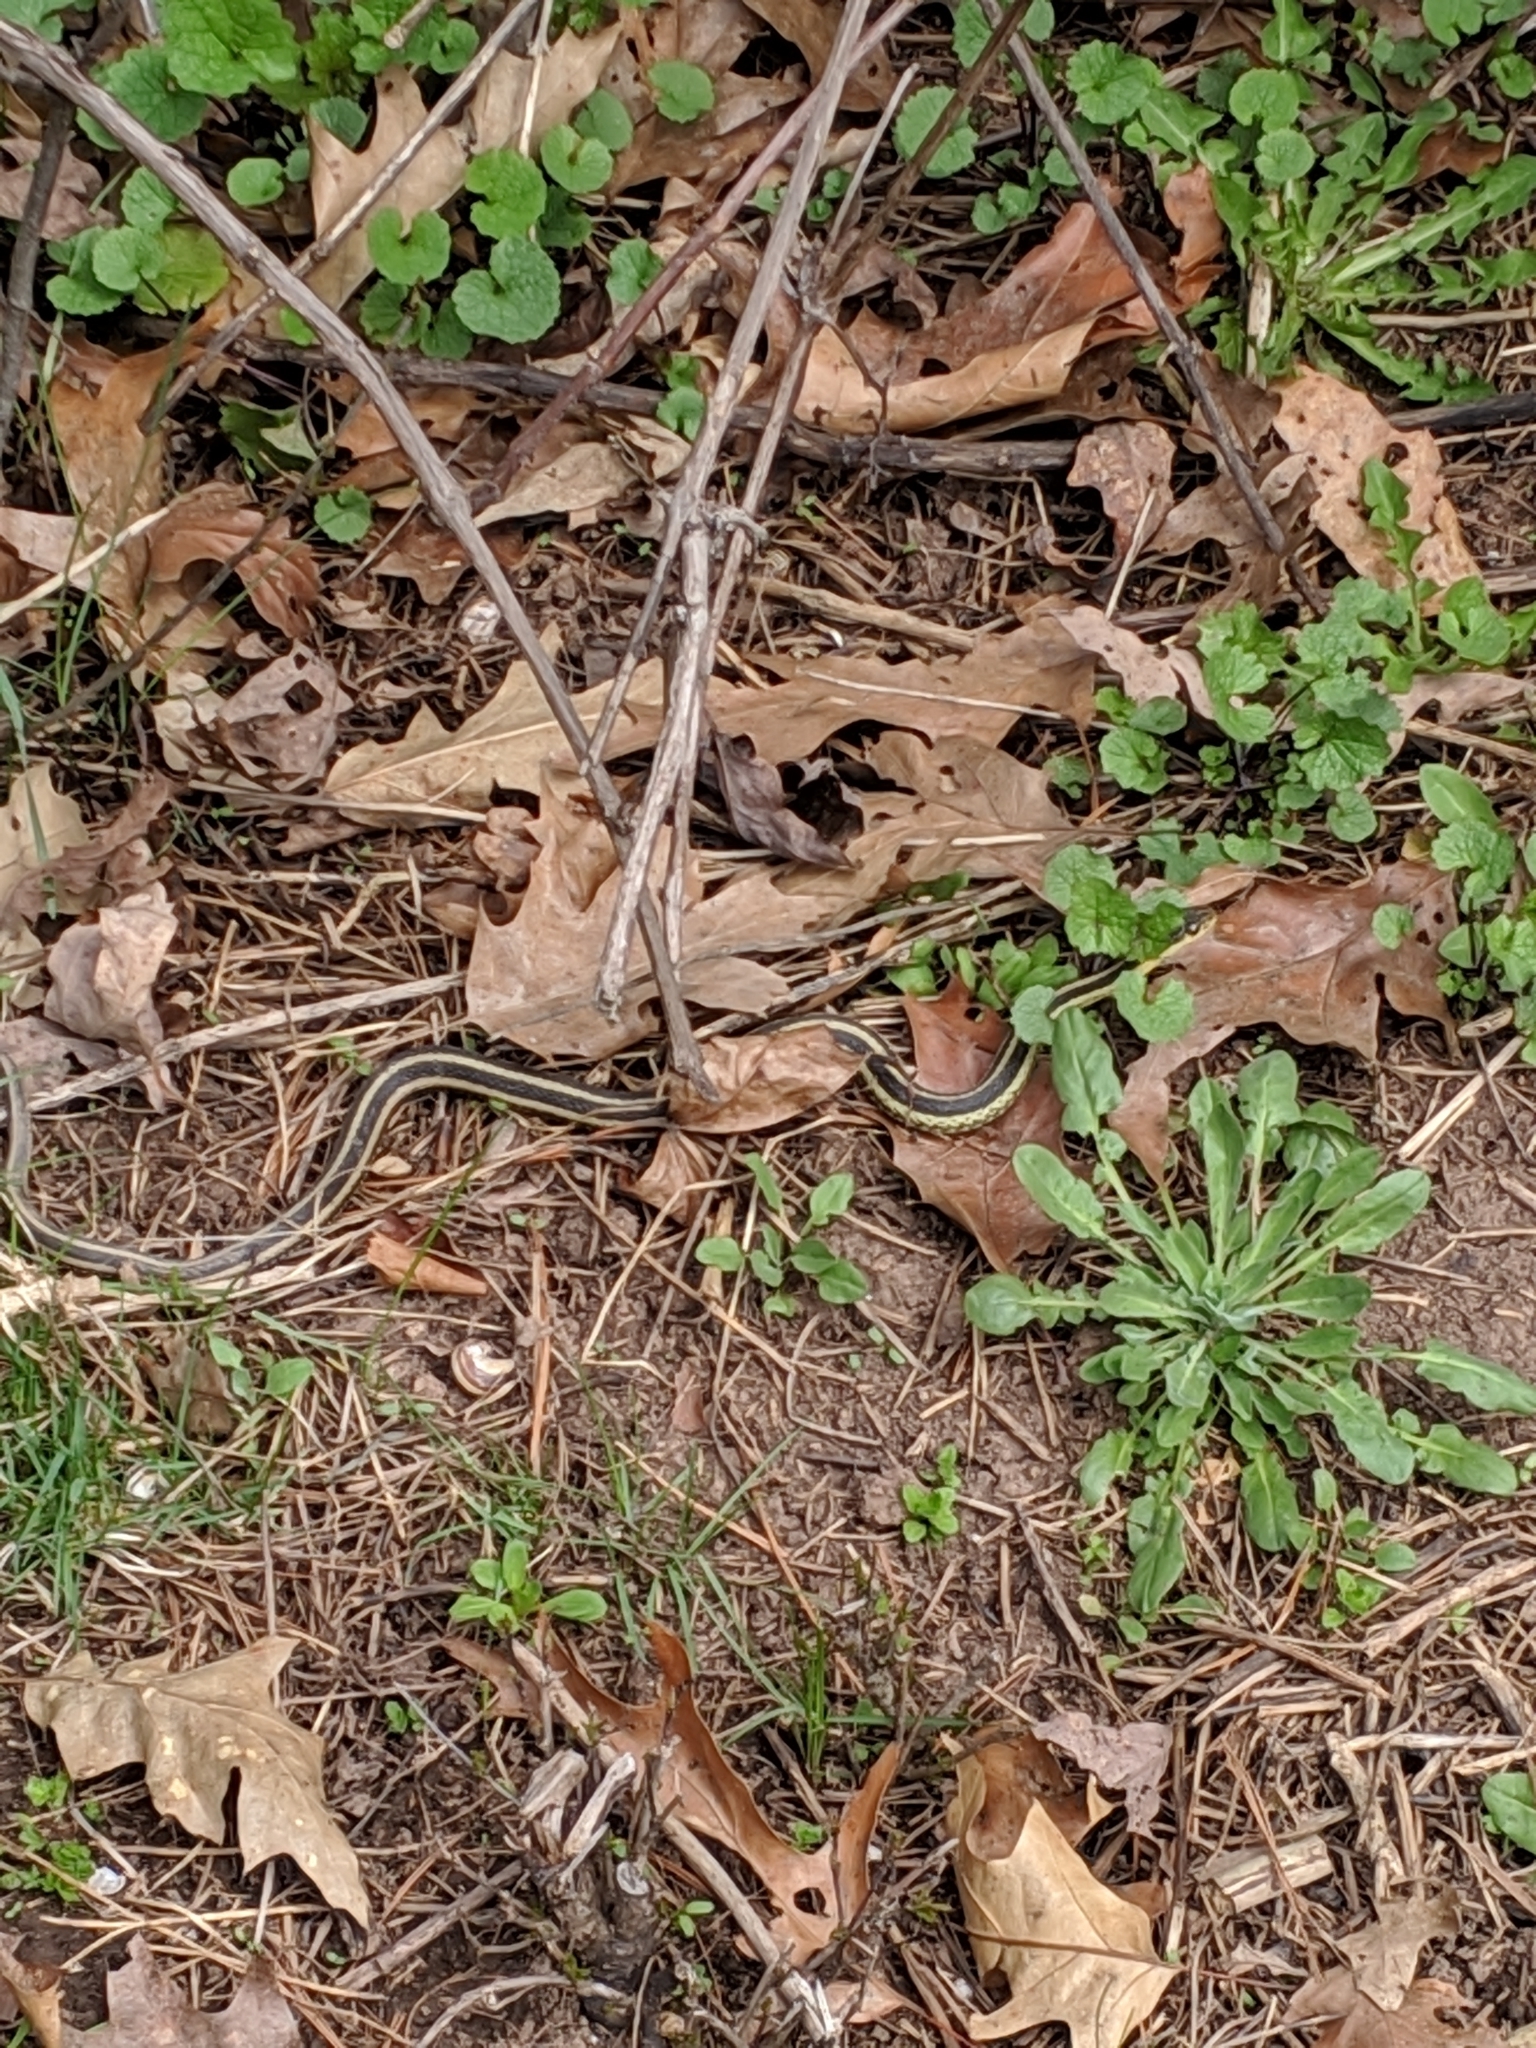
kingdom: Animalia
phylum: Chordata
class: Squamata
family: Colubridae
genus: Thamnophis
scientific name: Thamnophis sirtalis
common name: Common garter snake
